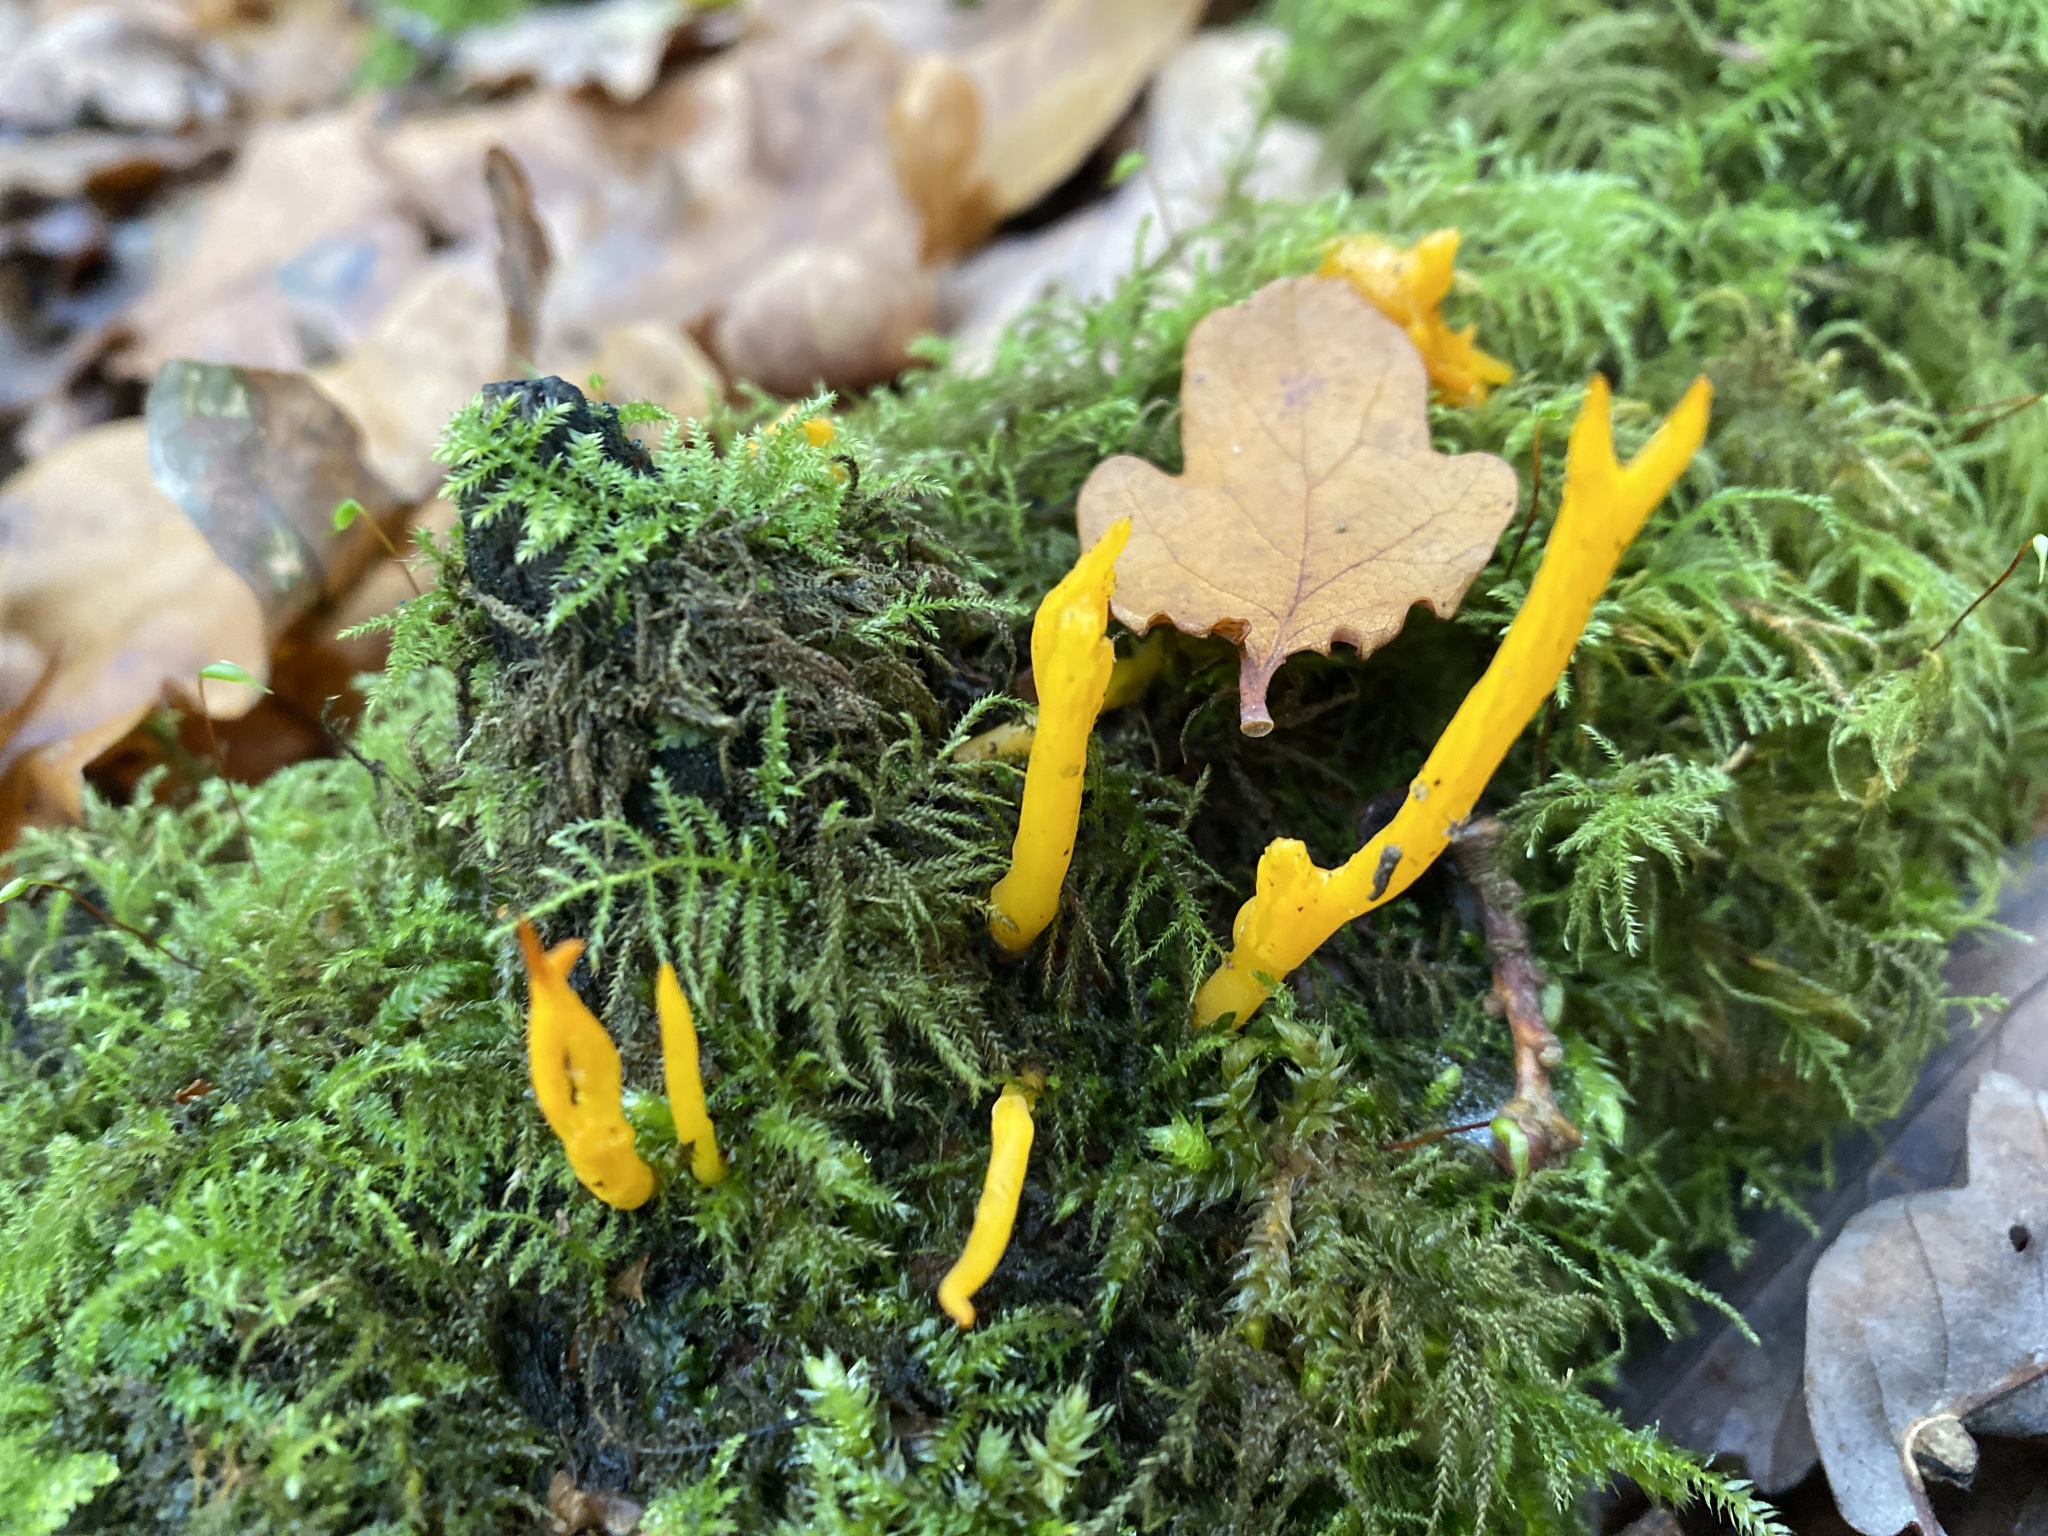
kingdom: Fungi
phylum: Basidiomycota
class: Dacrymycetes
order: Dacrymycetales
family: Dacrymycetaceae
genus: Calocera
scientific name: Calocera viscosa
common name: Yellow stagshorn
